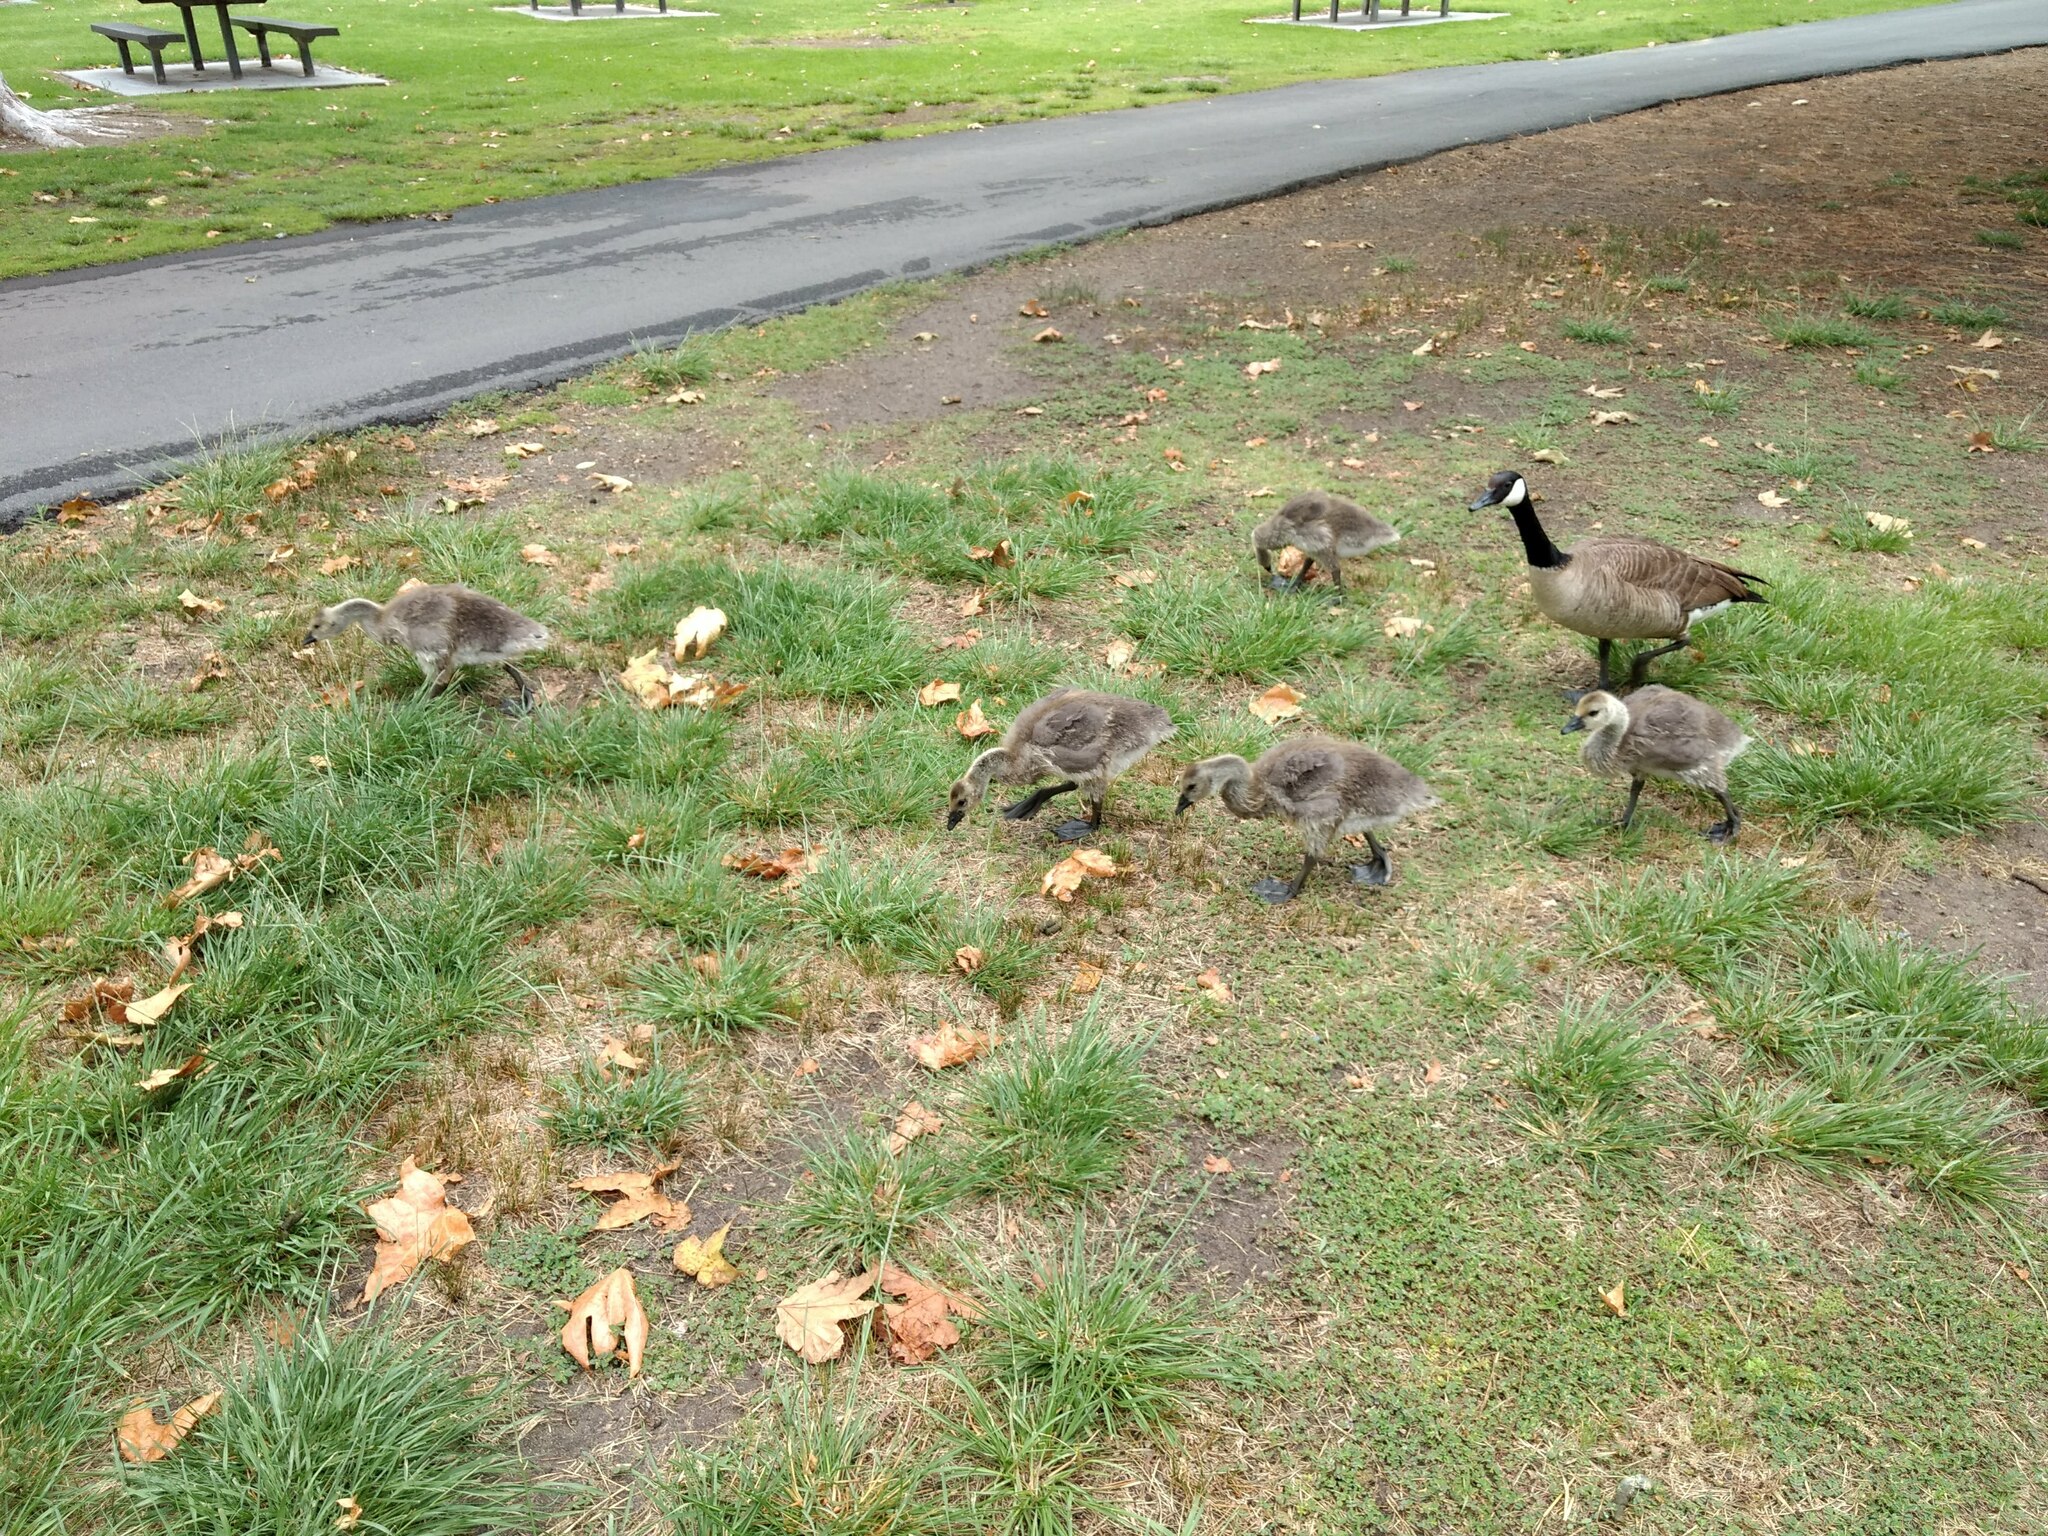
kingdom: Animalia
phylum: Chordata
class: Aves
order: Anseriformes
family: Anatidae
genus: Branta
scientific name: Branta canadensis
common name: Canada goose
